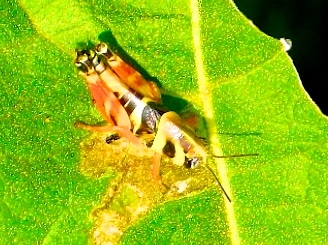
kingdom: Animalia
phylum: Arthropoda
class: Insecta
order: Orthoptera
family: Acrididae
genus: Aidemona
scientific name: Aidemona azteca
